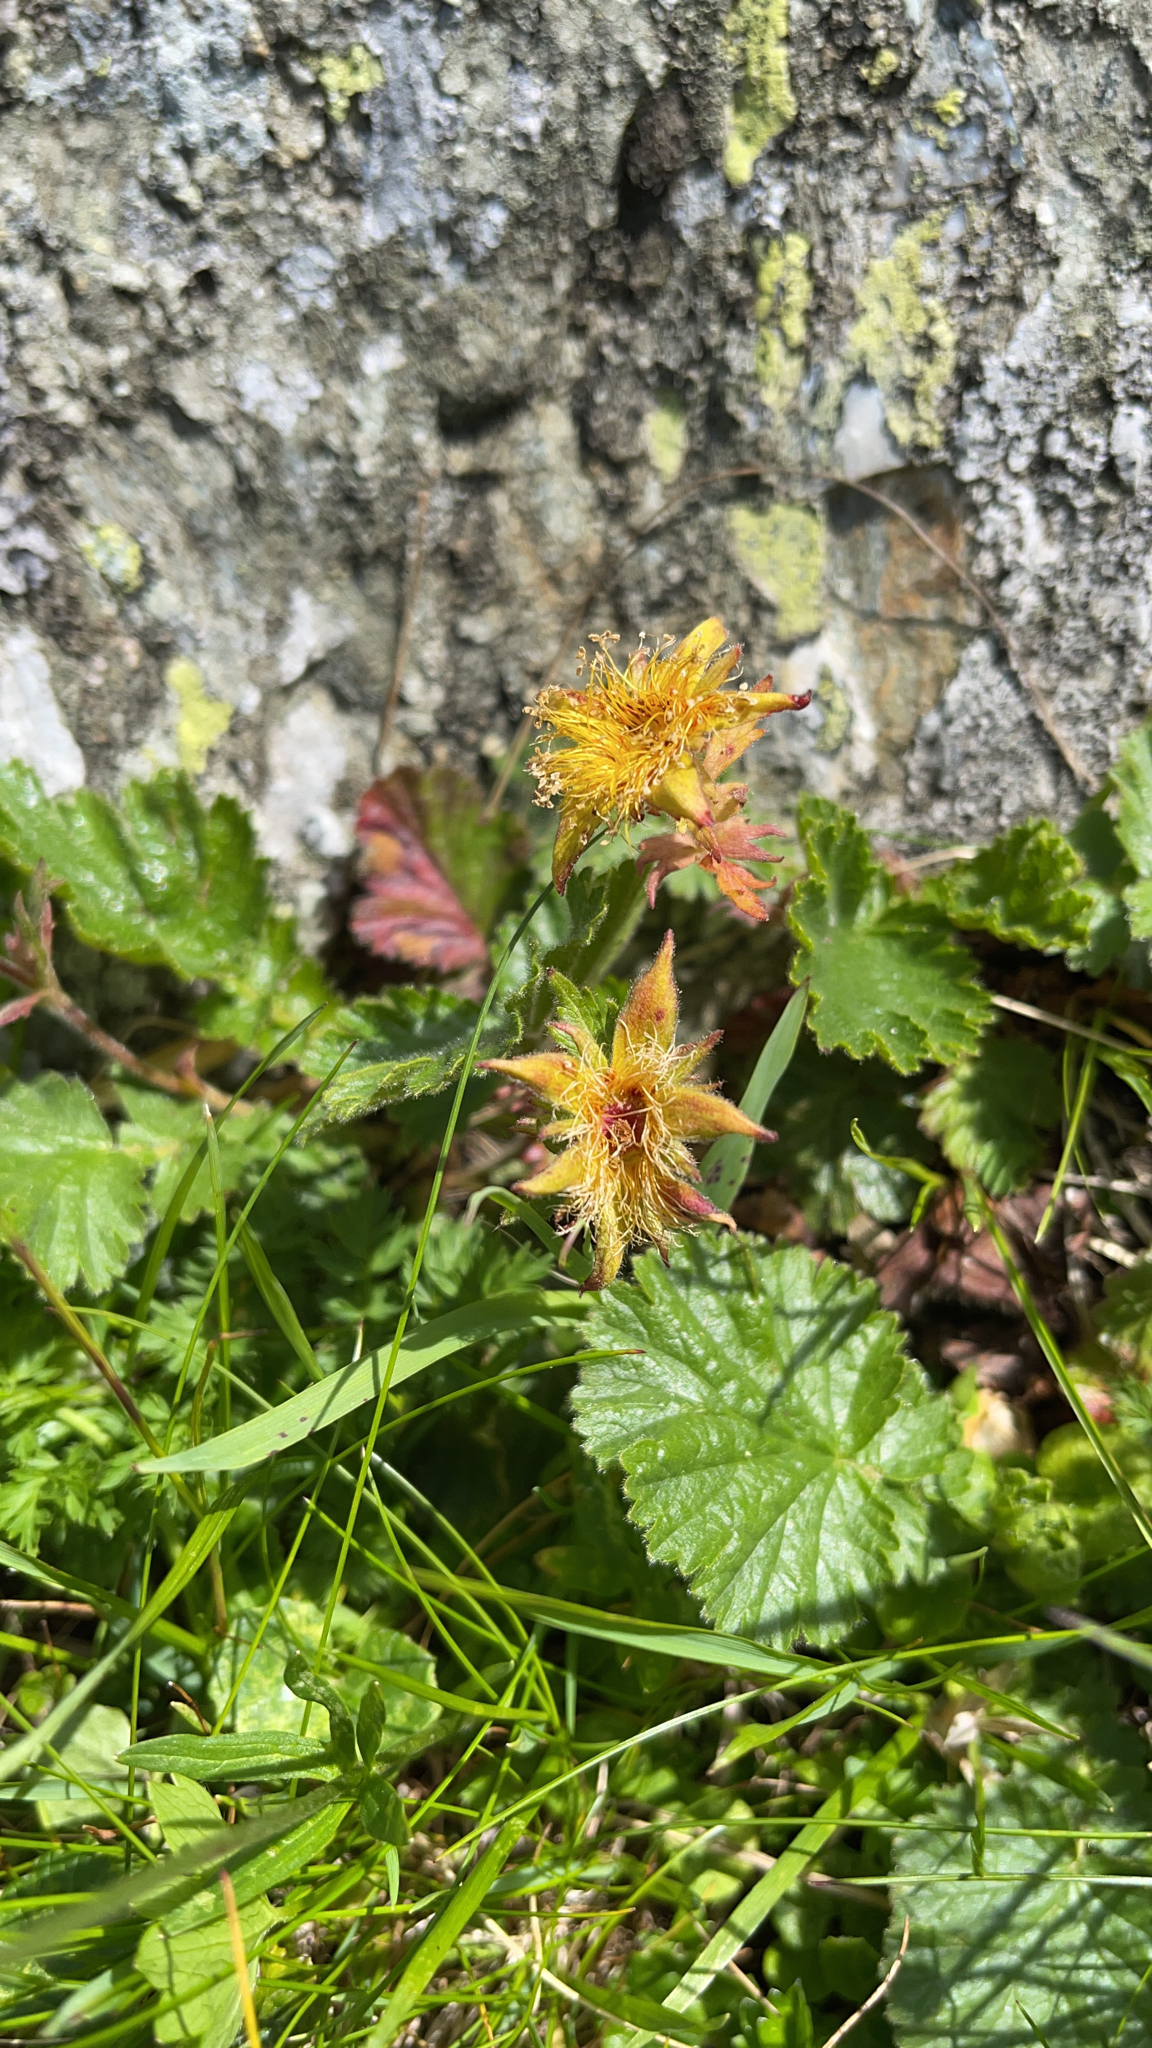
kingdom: Plantae
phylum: Tracheophyta
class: Magnoliopsida
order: Rosales
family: Rosaceae
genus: Geum
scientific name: Geum montanum
